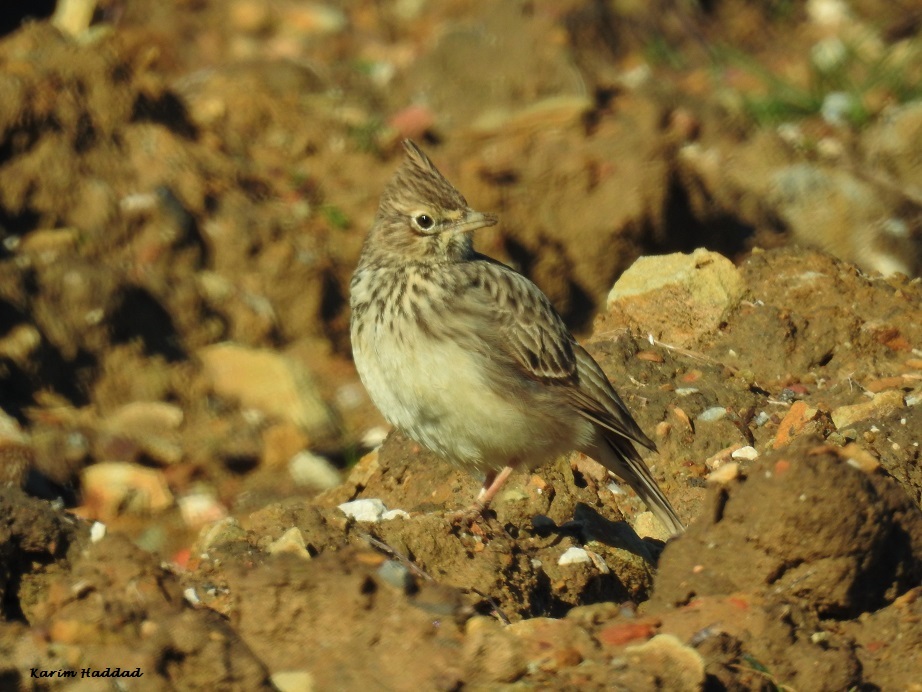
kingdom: Animalia
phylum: Chordata
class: Aves
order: Passeriformes
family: Alaudidae
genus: Galerida
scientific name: Galerida theklae
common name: Thekla lark
